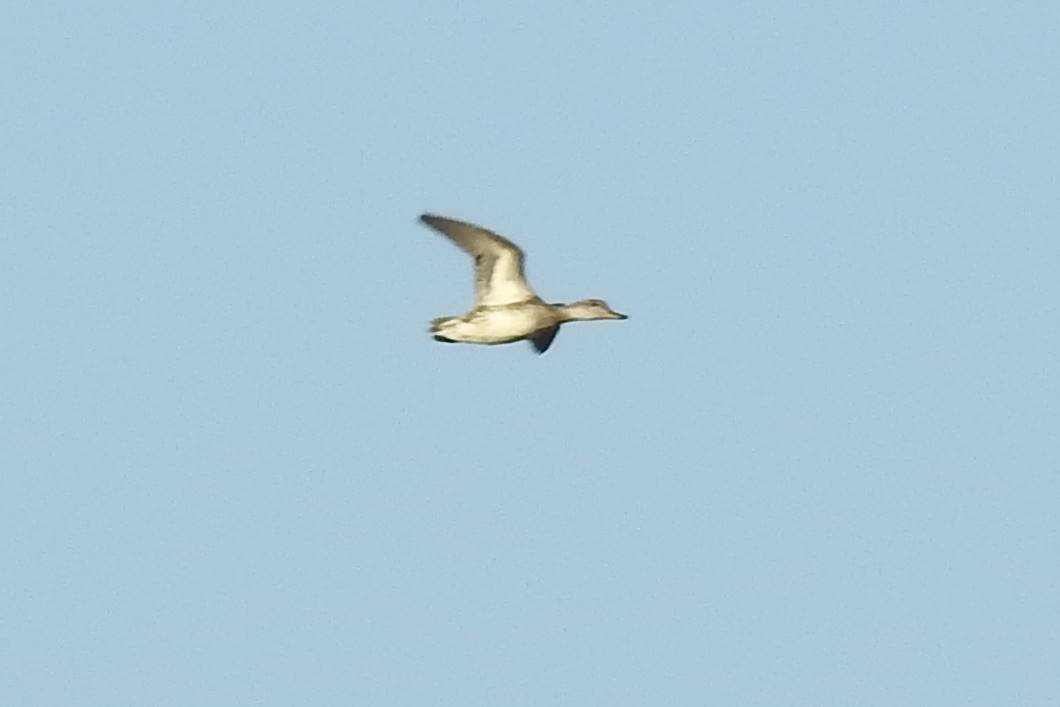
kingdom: Animalia
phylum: Chordata
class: Aves
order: Anseriformes
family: Anatidae
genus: Anas
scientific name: Anas crecca
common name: Eurasian teal
